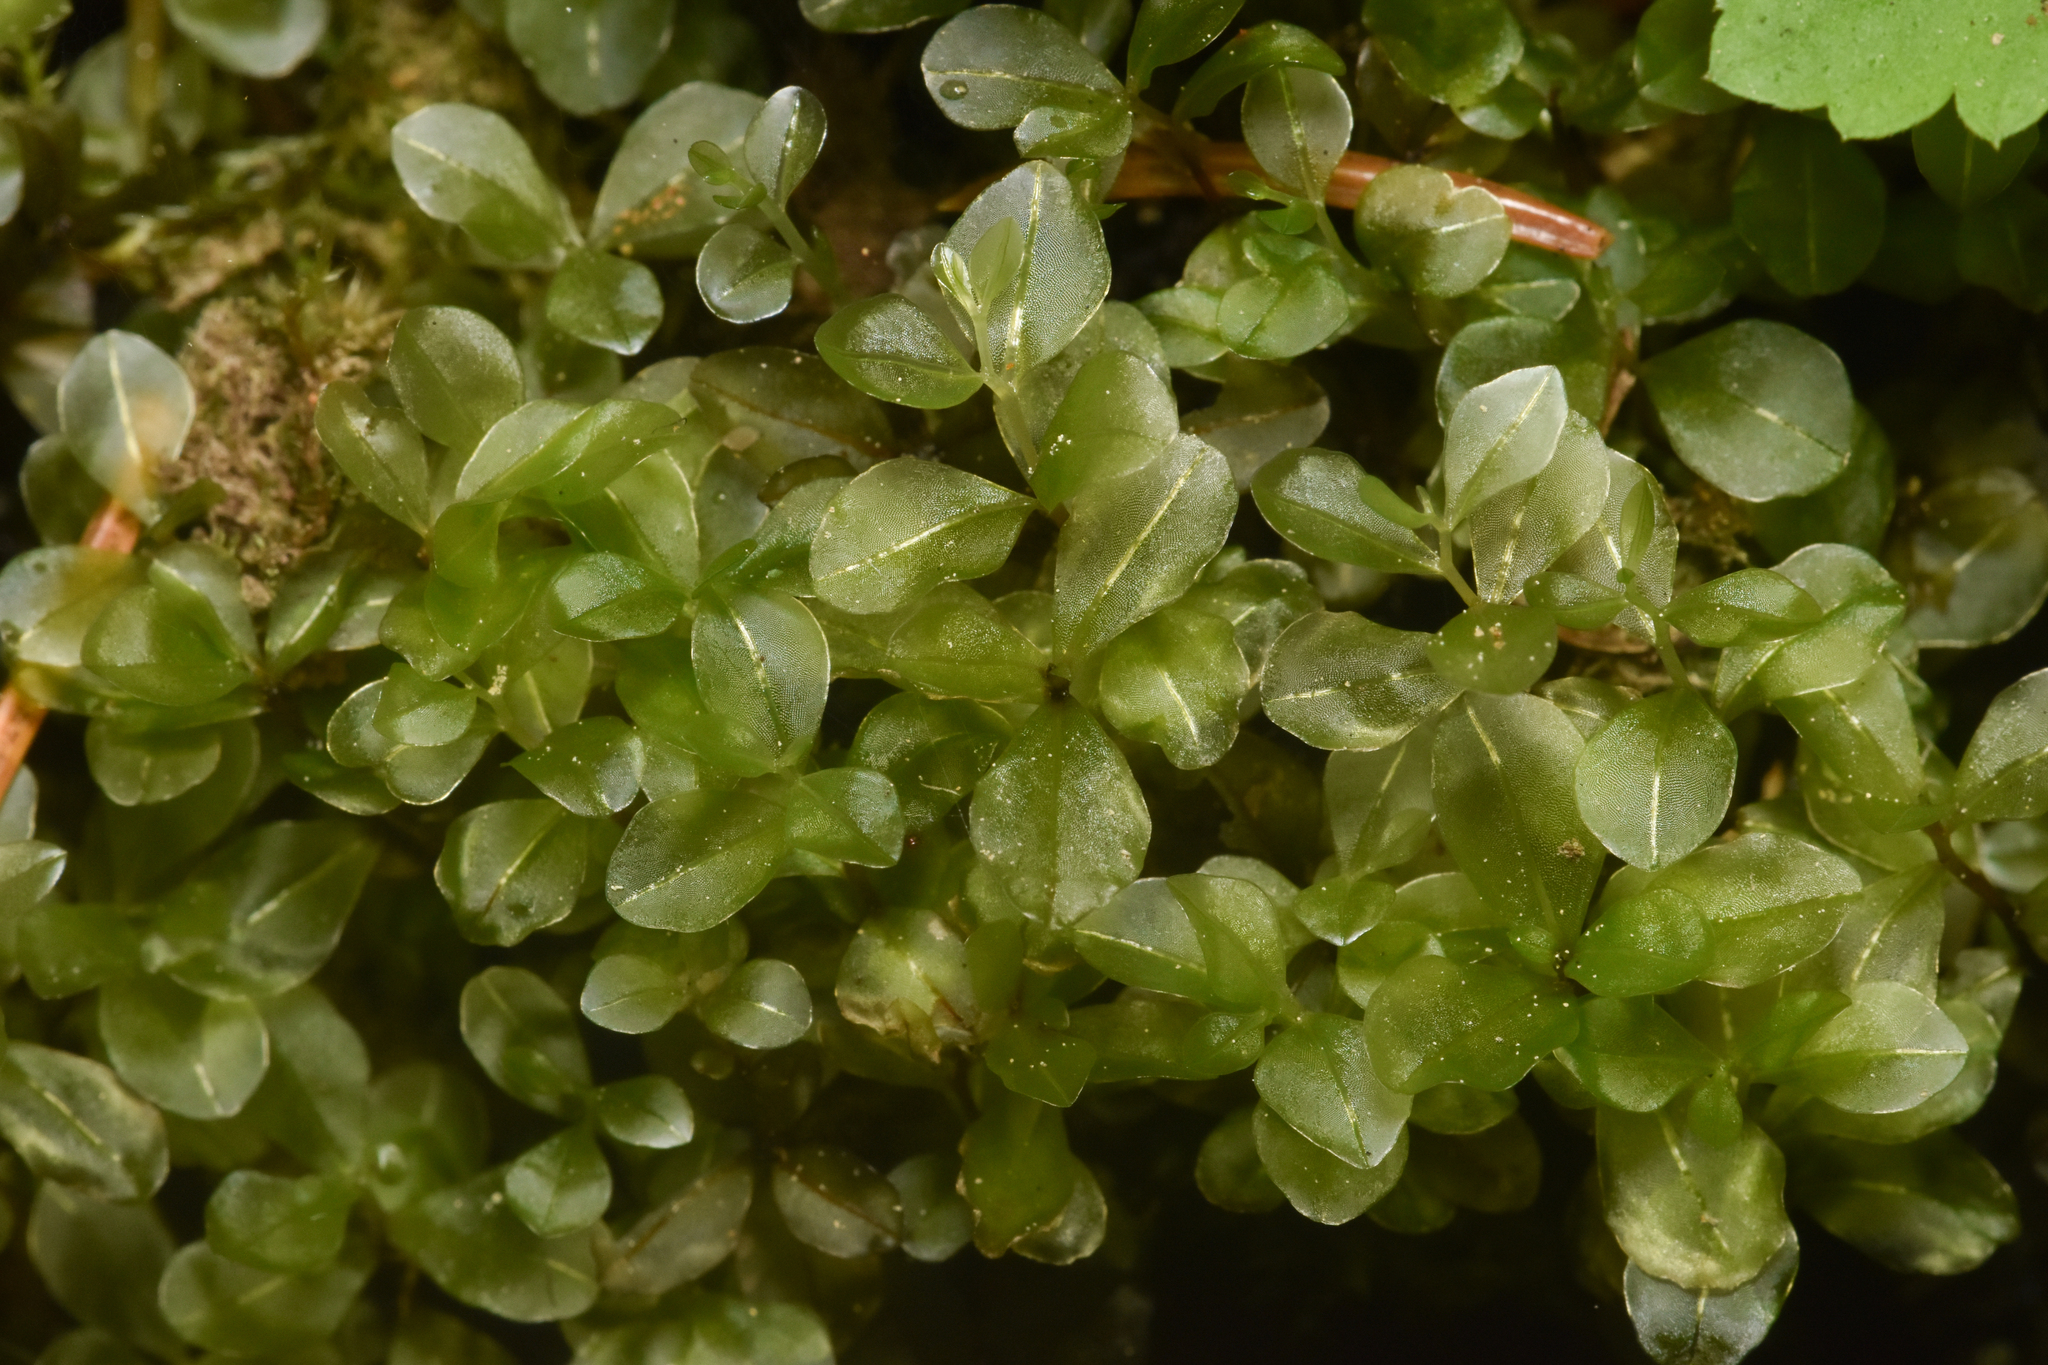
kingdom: Plantae
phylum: Bryophyta
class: Bryopsida
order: Bryales
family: Mniaceae
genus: Rhizomnium
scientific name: Rhizomnium magnifolium
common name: Large-leaved leafy moss
